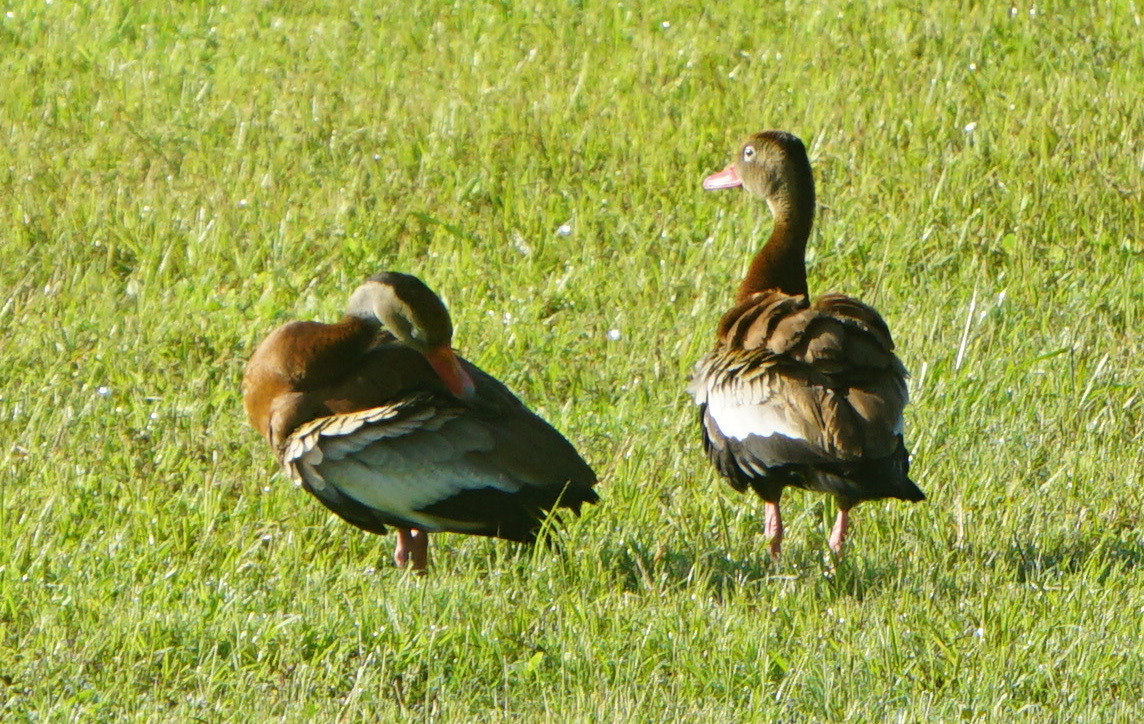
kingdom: Animalia
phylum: Chordata
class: Aves
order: Anseriformes
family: Anatidae
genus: Dendrocygna
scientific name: Dendrocygna autumnalis
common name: Black-bellied whistling duck
